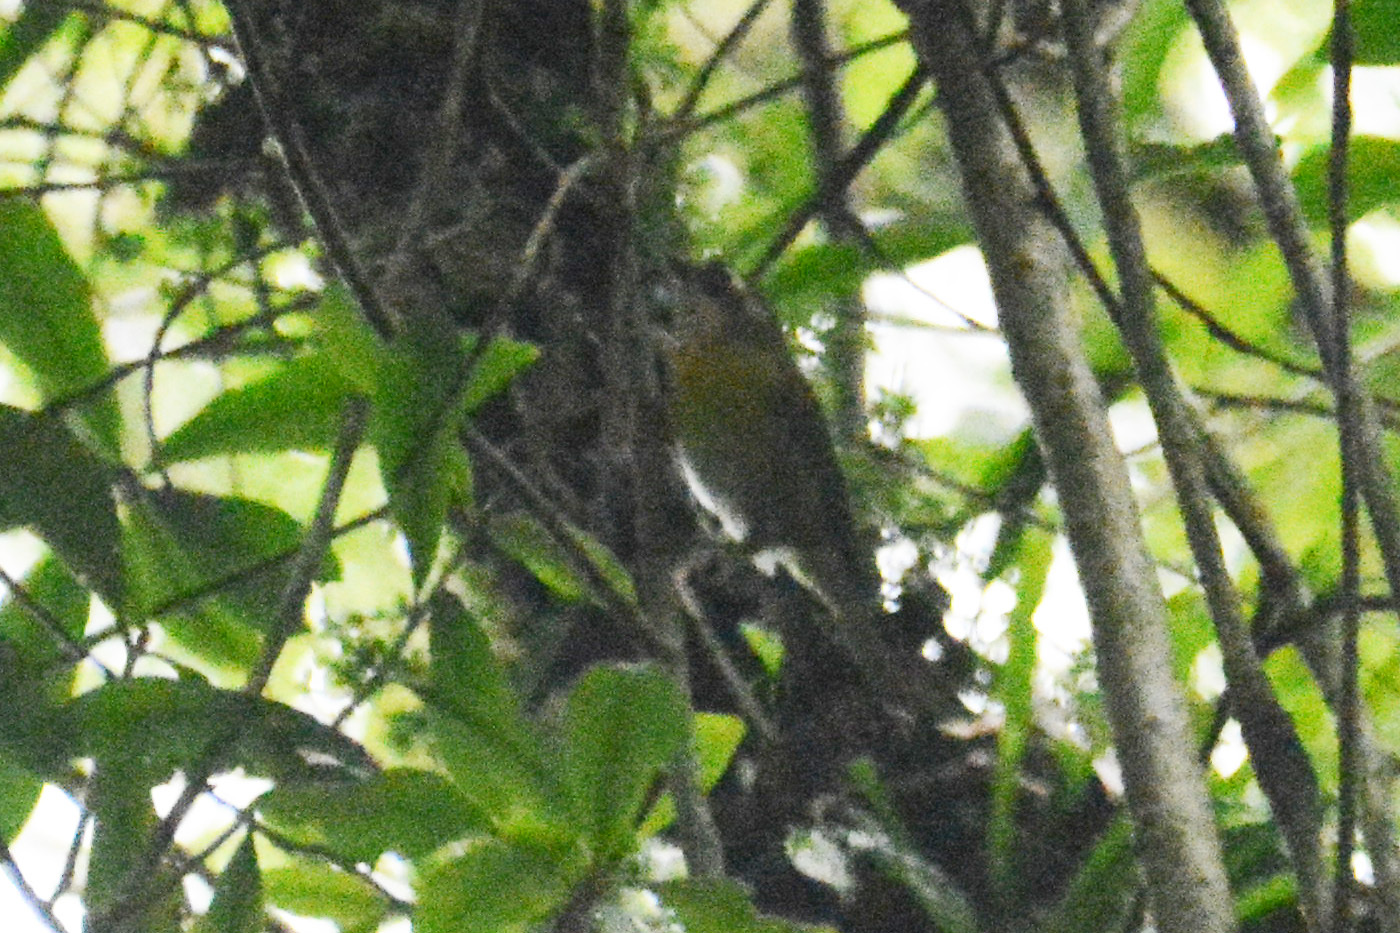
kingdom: Animalia
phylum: Chordata
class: Aves
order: Passeriformes
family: Passerellidae
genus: Chlorospingus
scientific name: Chlorospingus flavopectus
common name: Common chlorospingus
